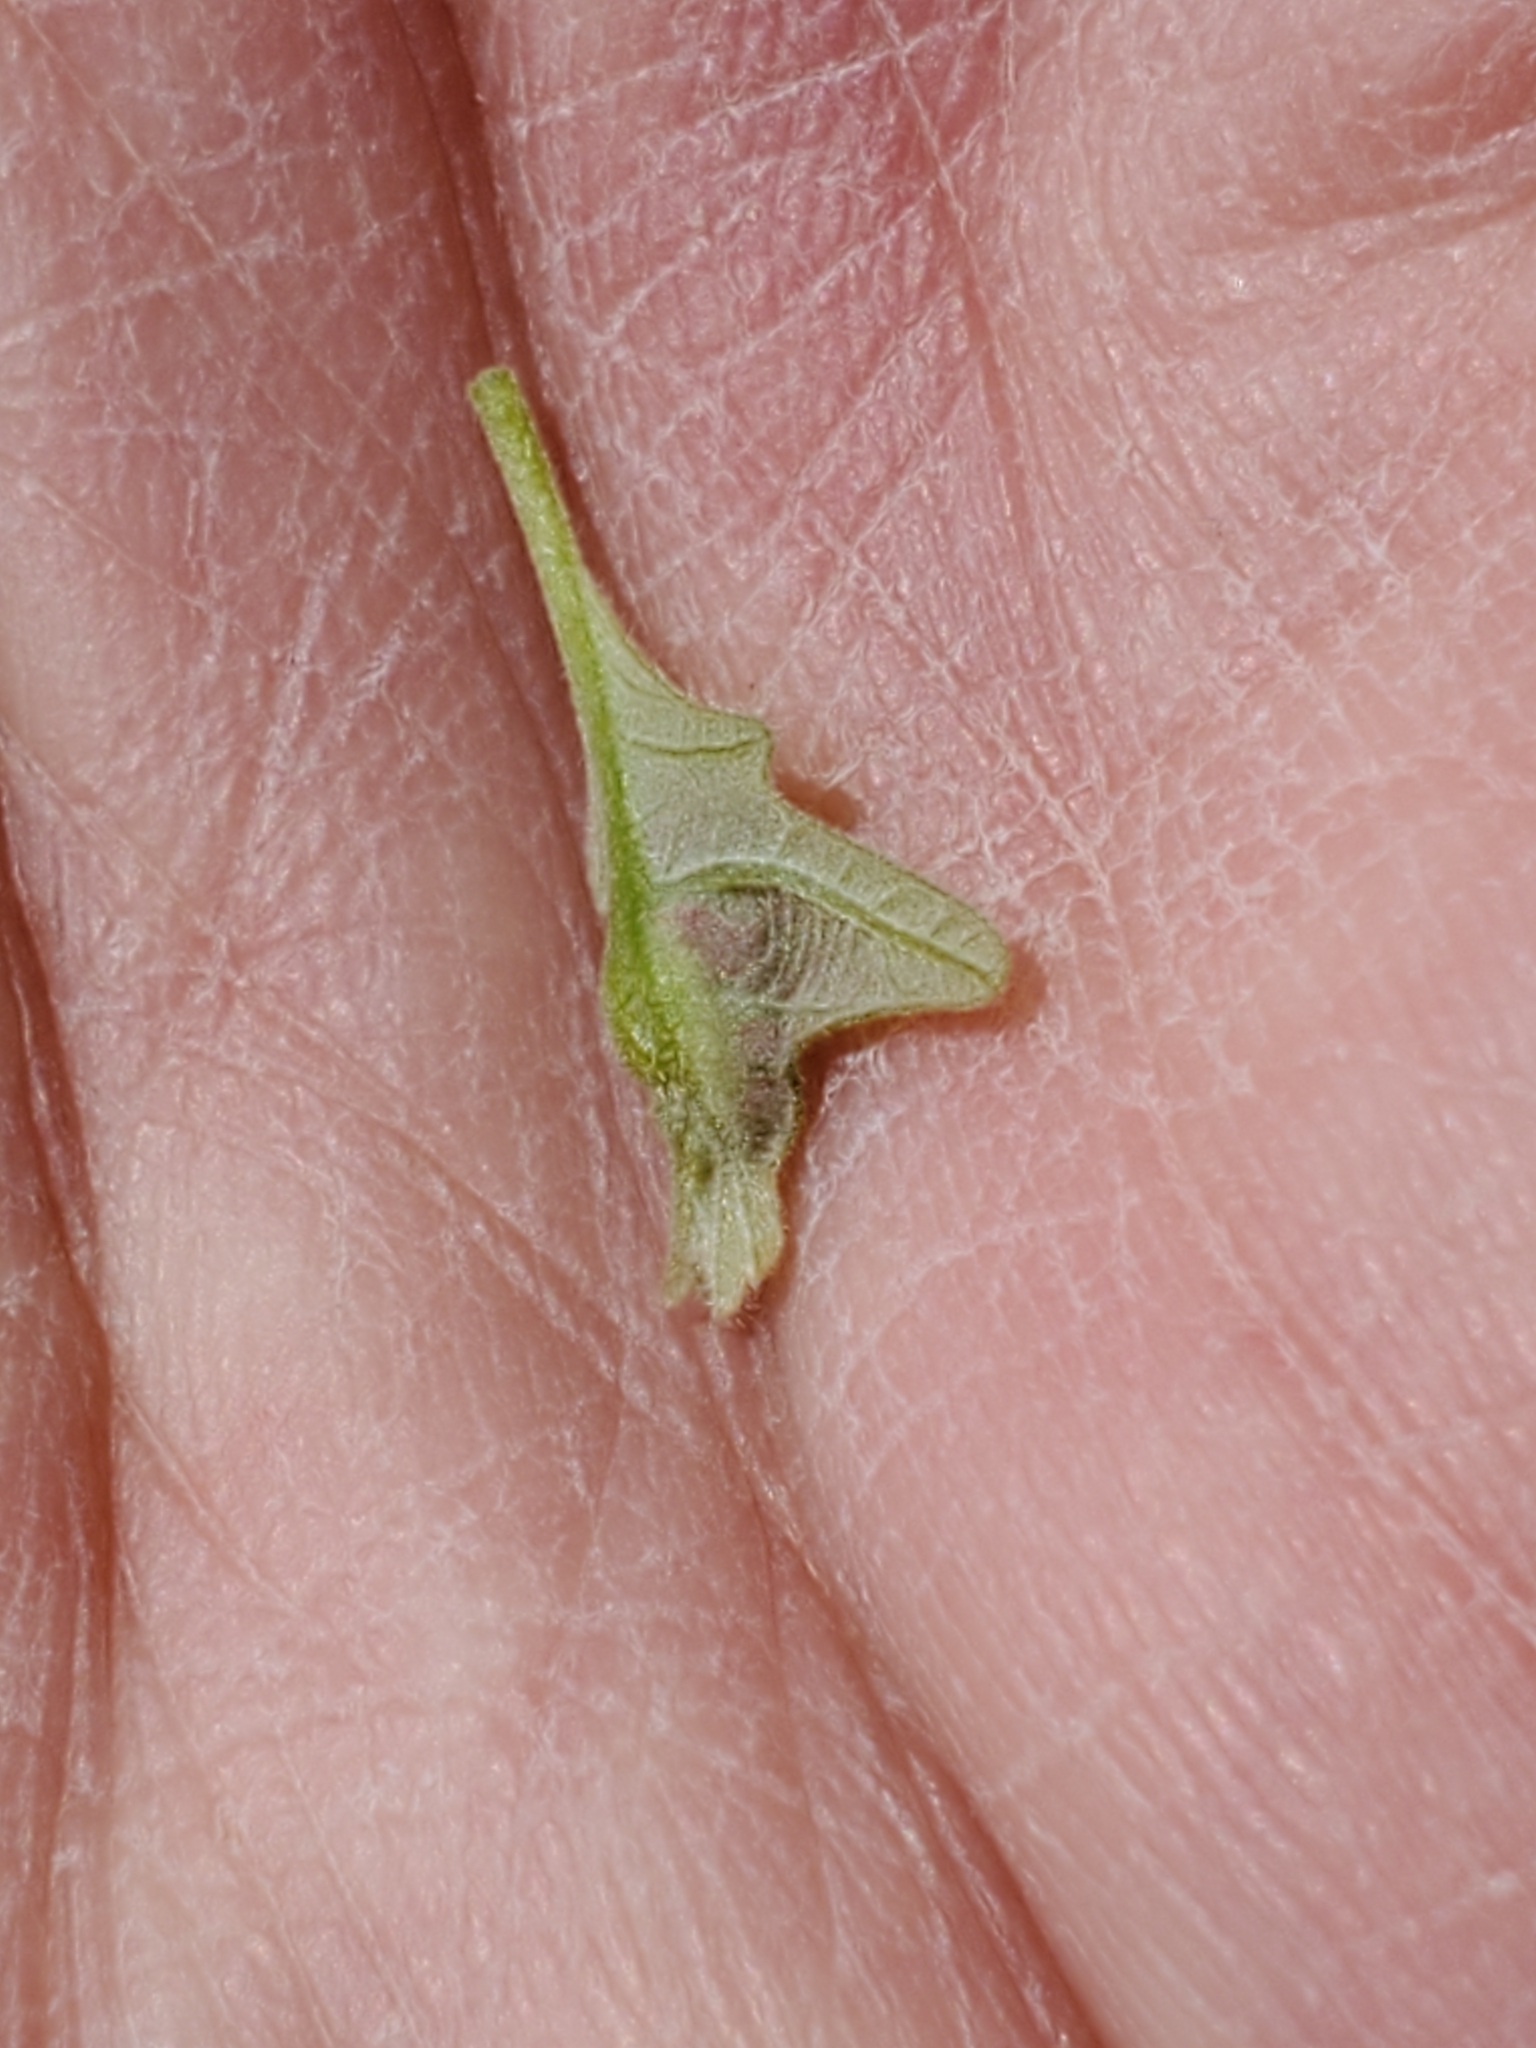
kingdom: Animalia
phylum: Arthropoda
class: Insecta
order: Hymenoptera
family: Cynipidae
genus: Neuroterus
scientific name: Neuroterus
